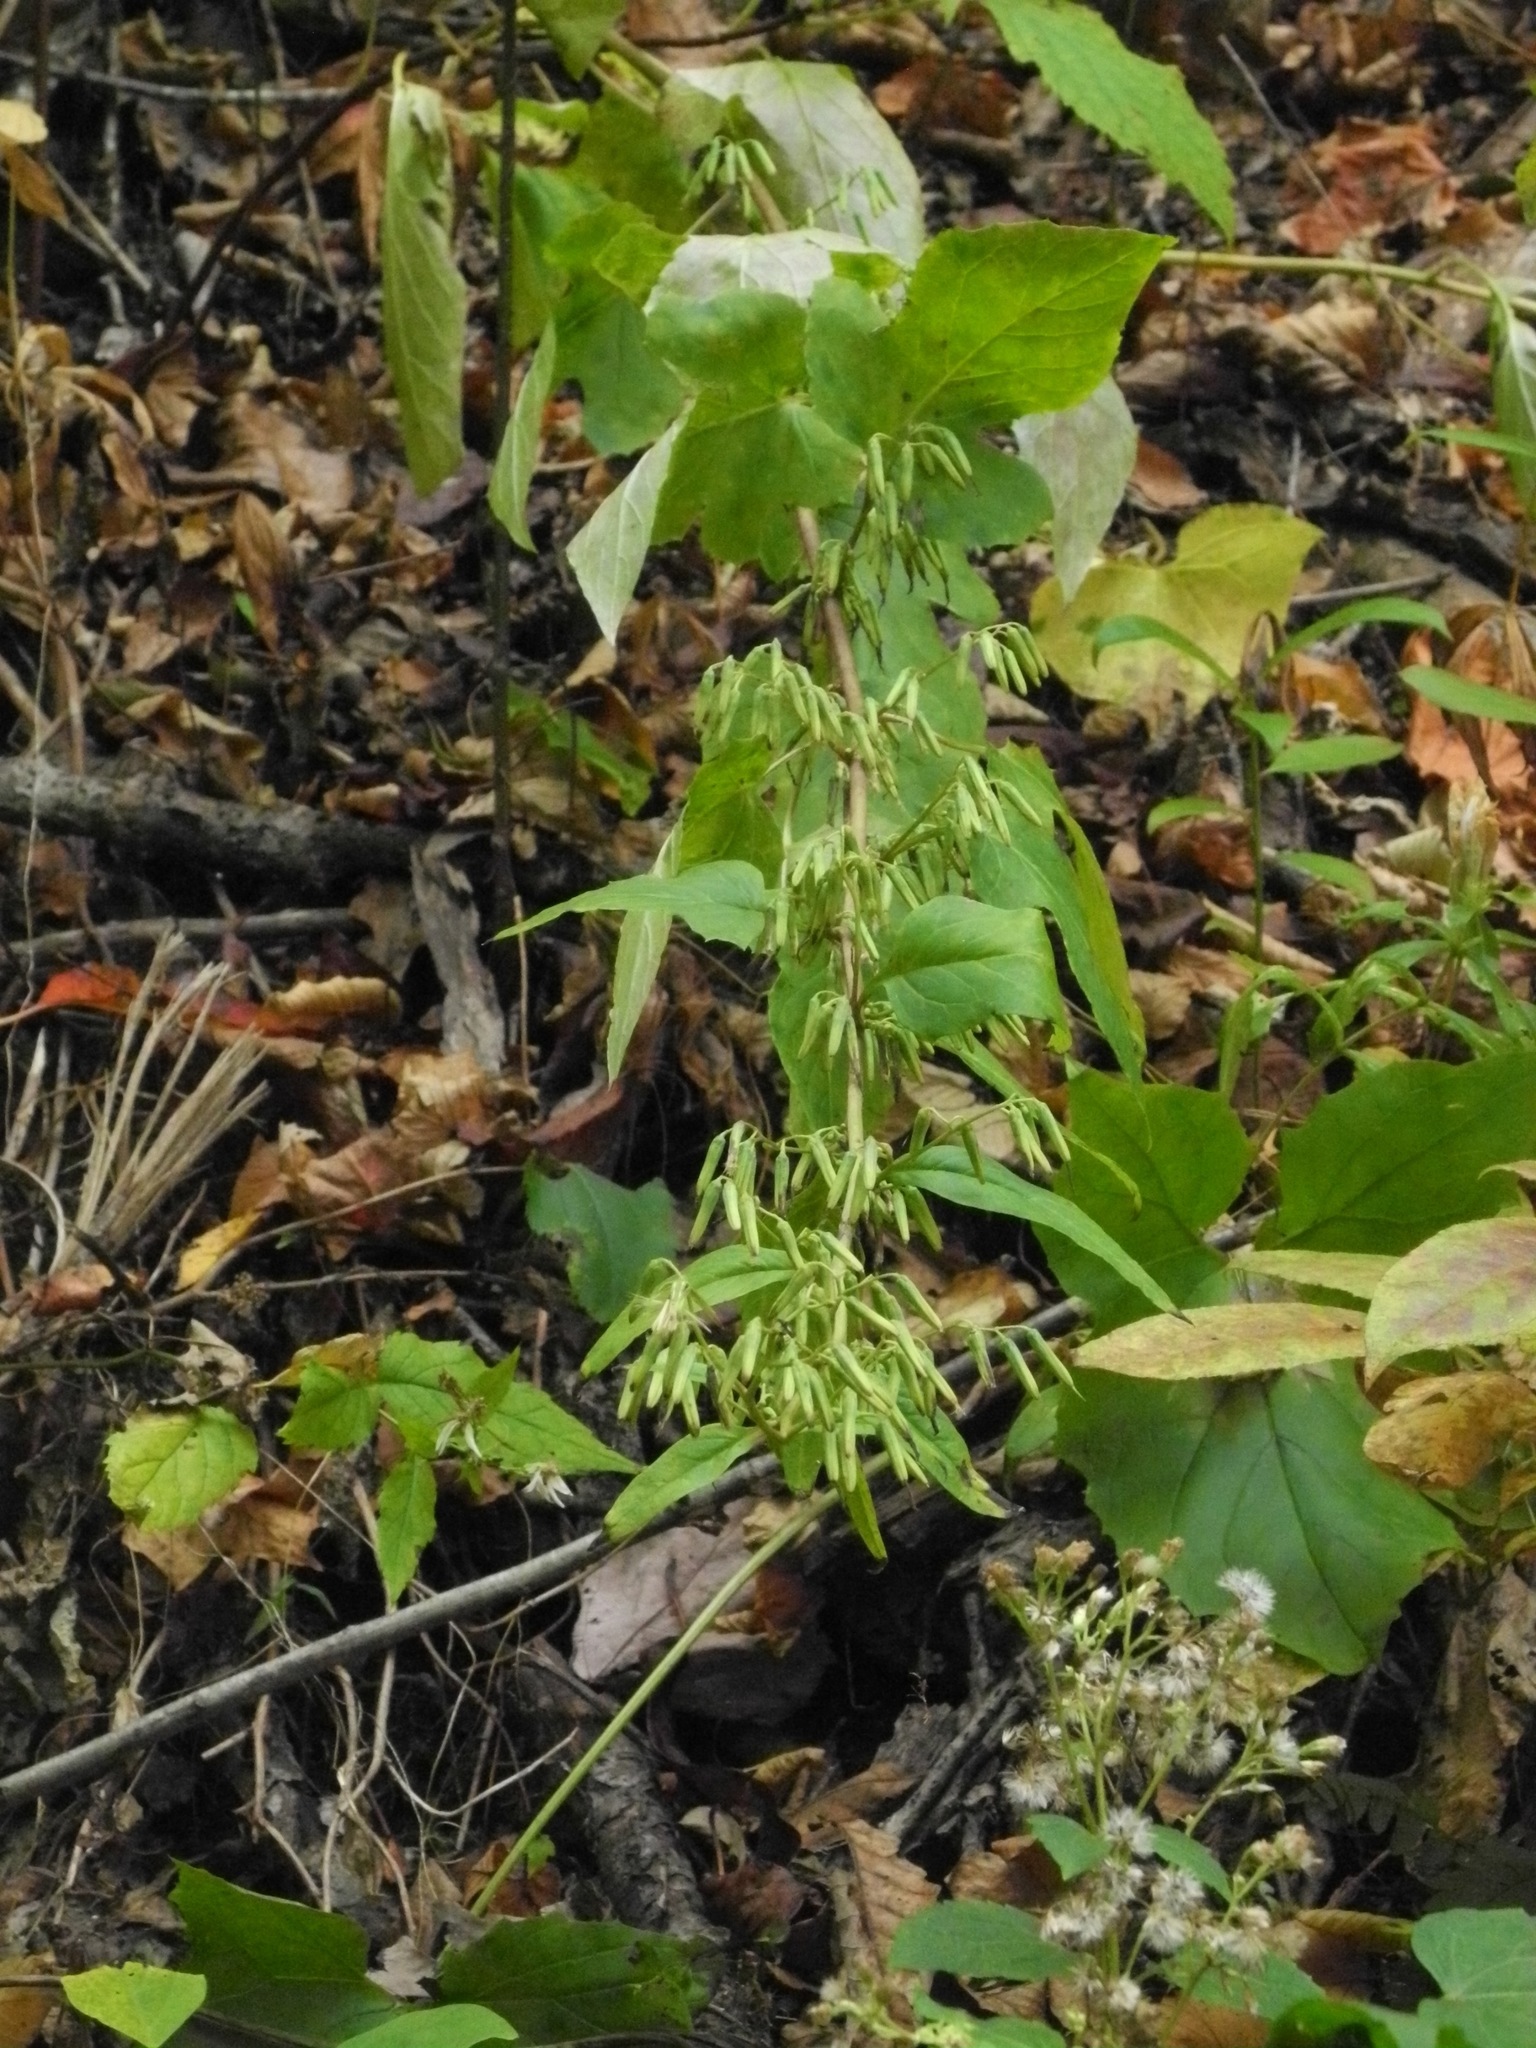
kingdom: Plantae
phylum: Tracheophyta
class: Magnoliopsida
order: Asterales
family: Asteraceae
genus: Nabalus
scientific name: Nabalus altissima
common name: Tall rattlesnakeroot
